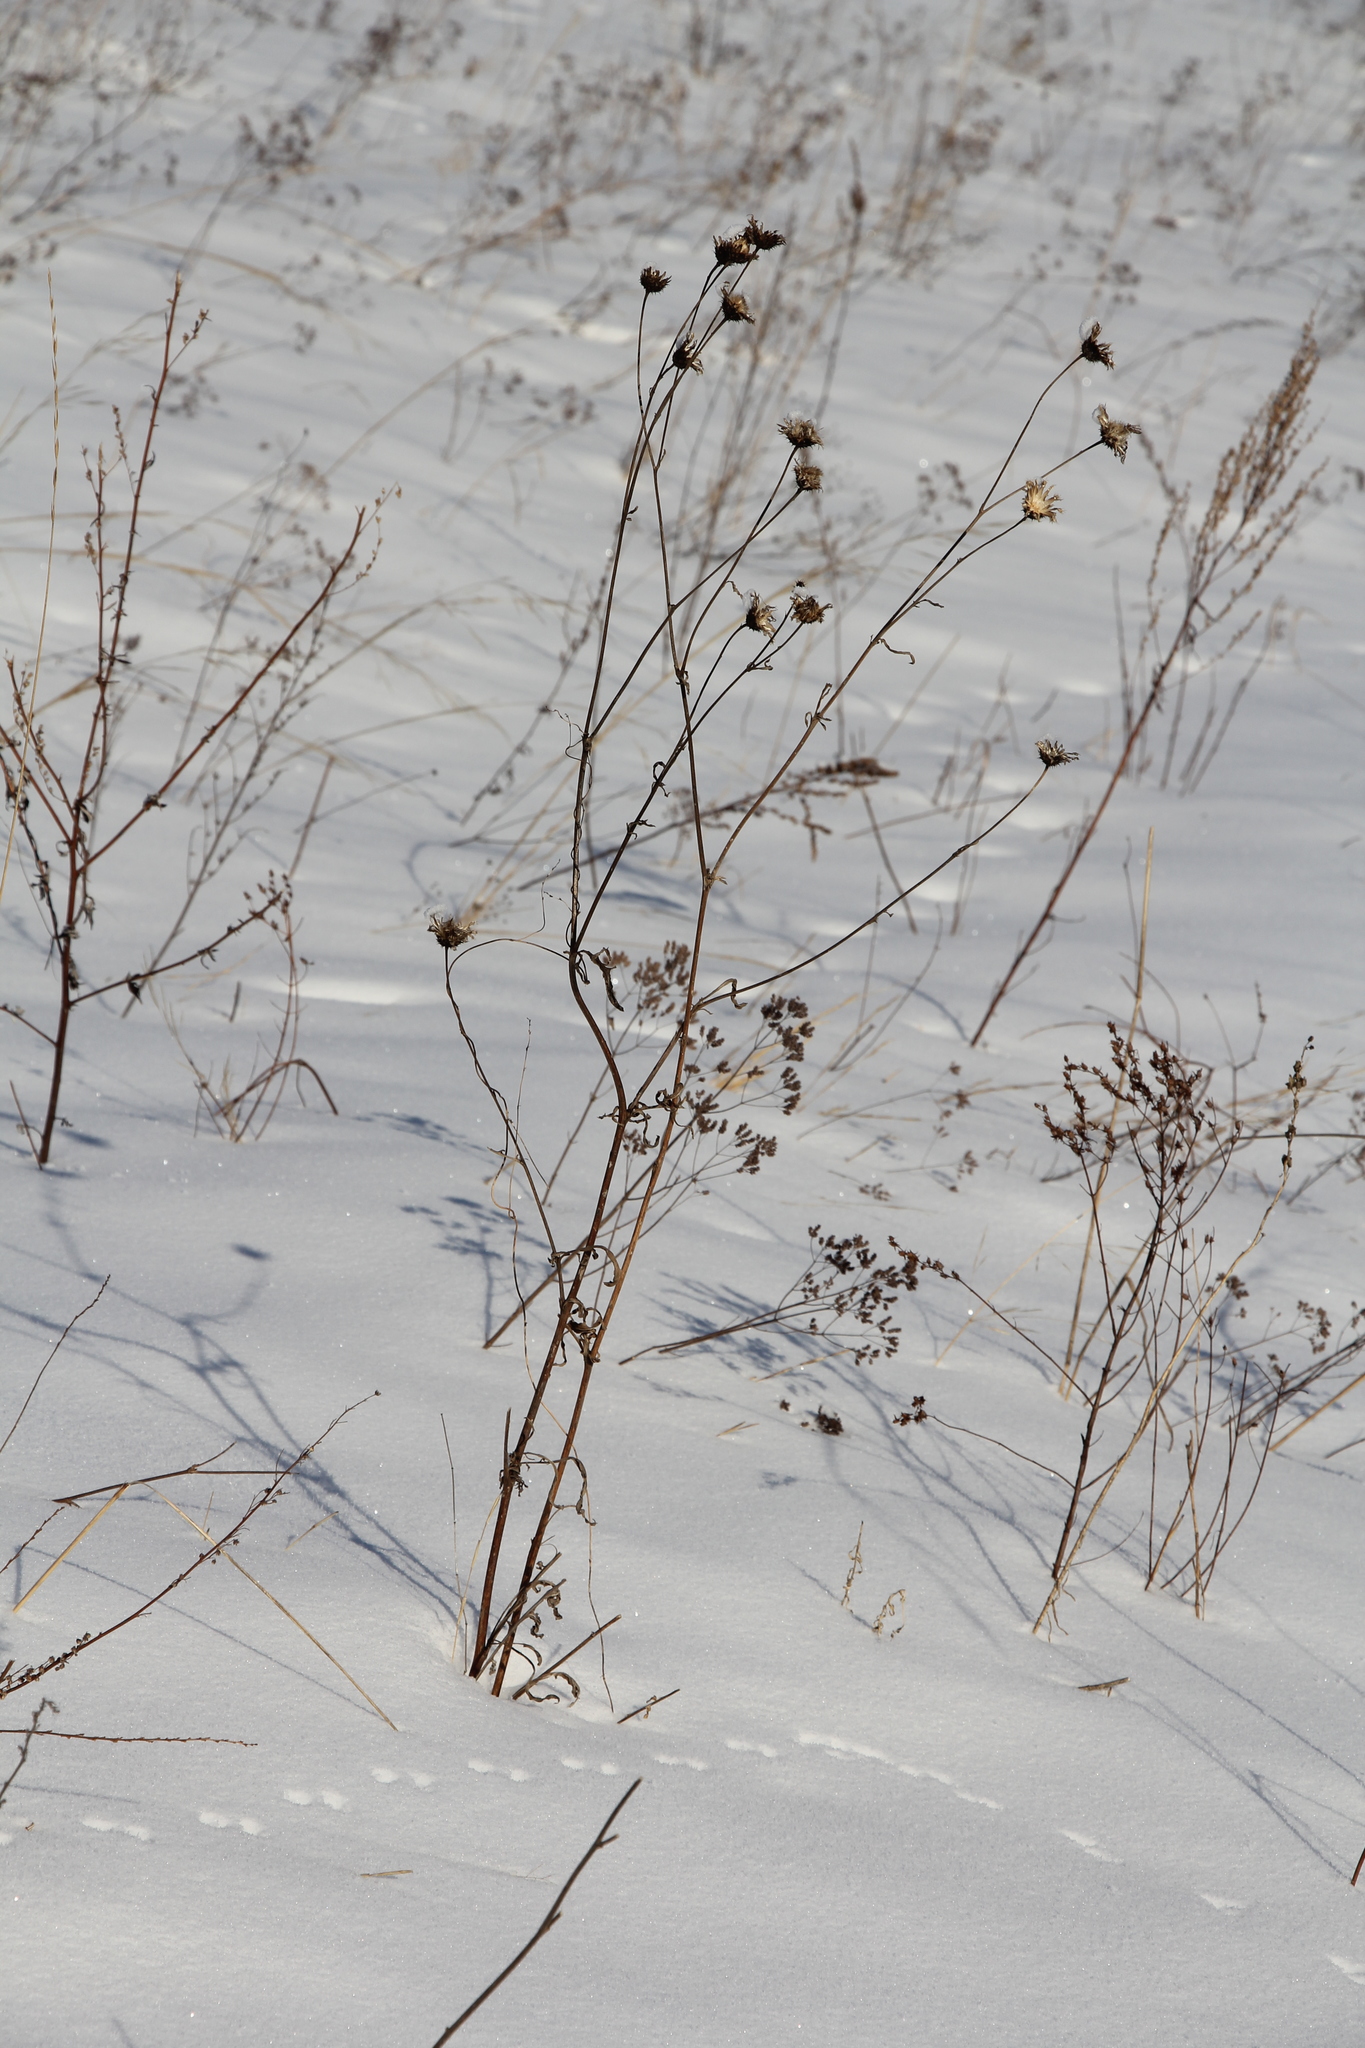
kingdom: Plantae
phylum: Tracheophyta
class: Magnoliopsida
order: Asterales
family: Asteraceae
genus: Centaurea
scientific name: Centaurea scabiosa
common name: Greater knapweed
